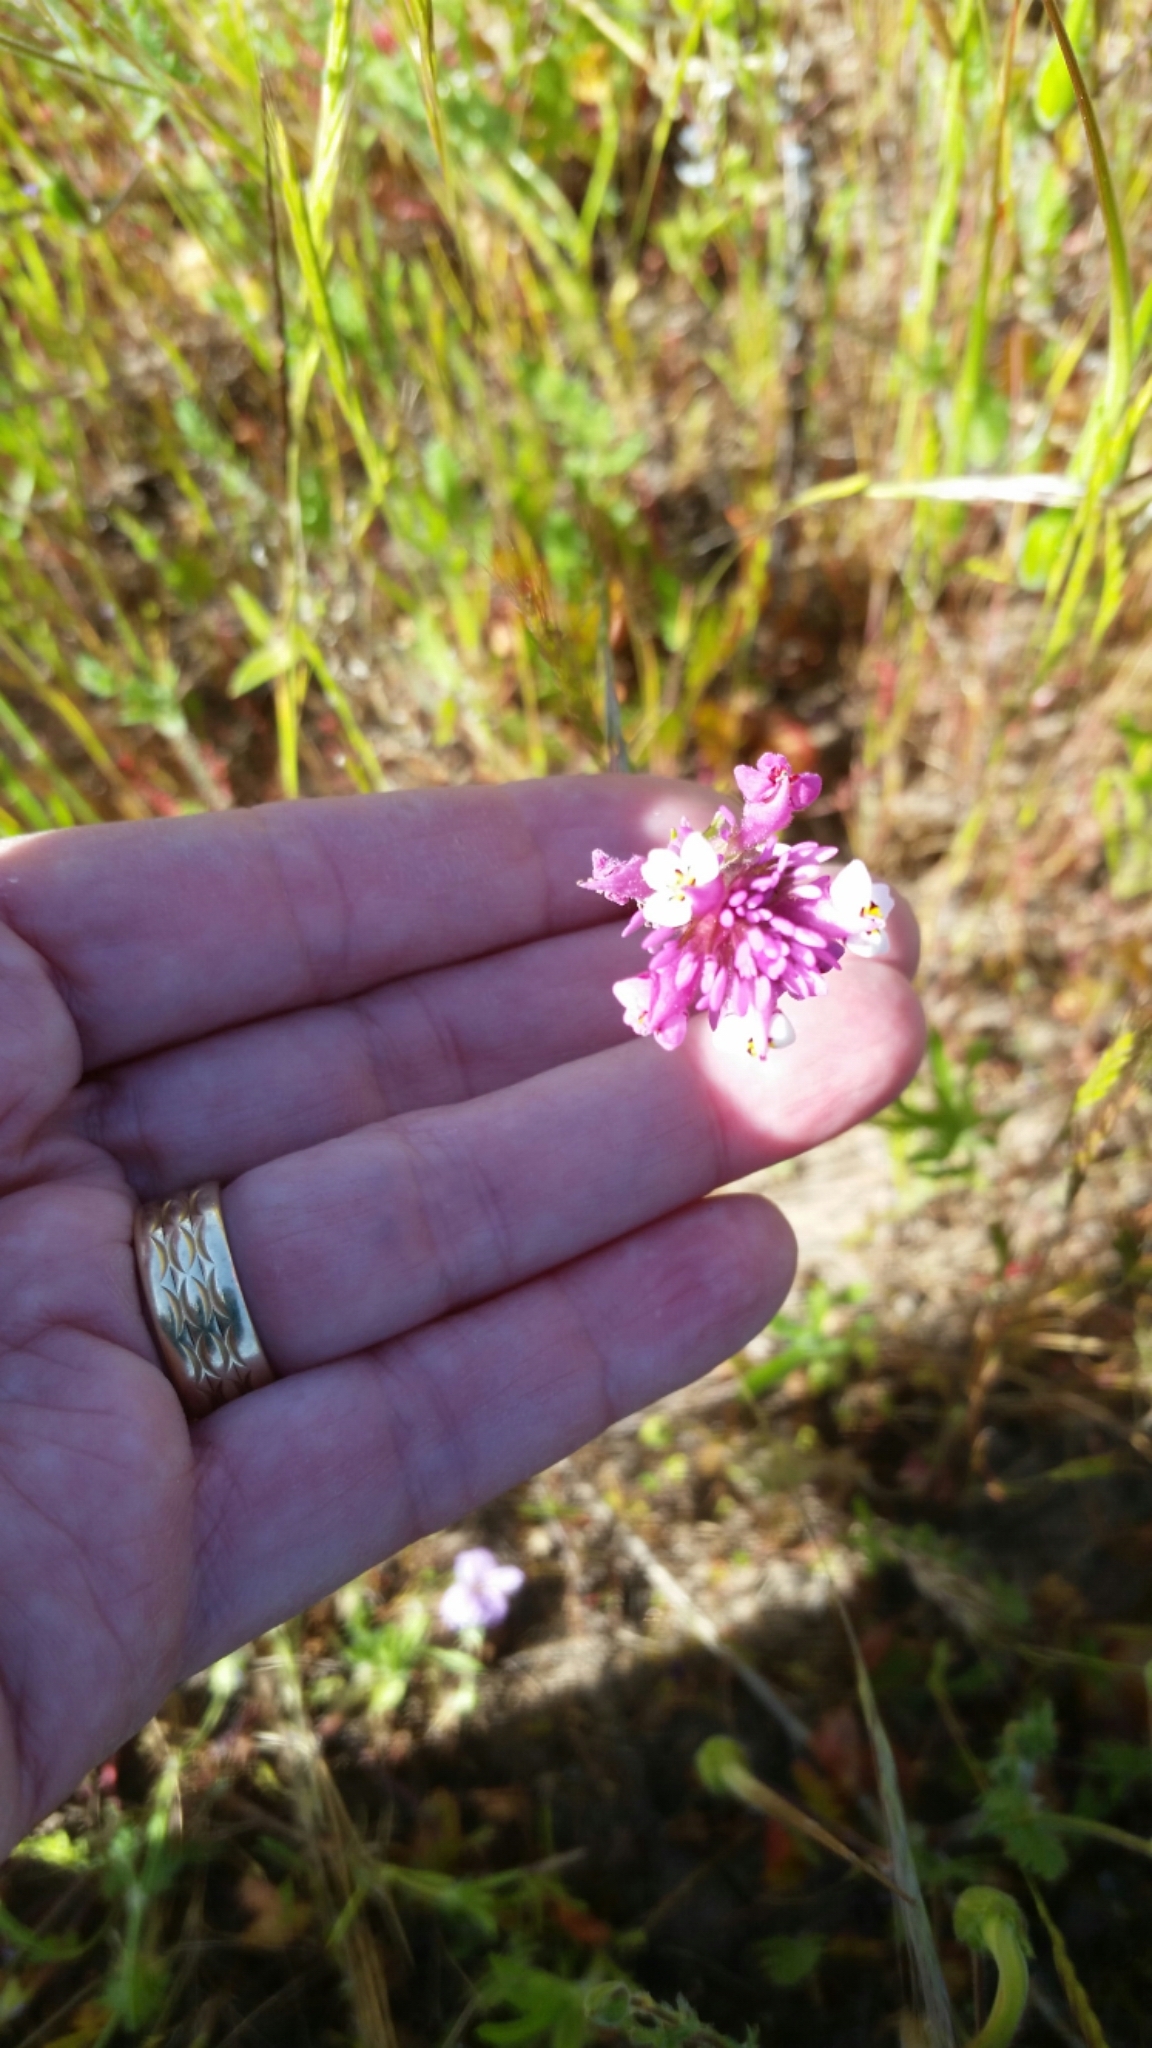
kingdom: Plantae
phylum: Tracheophyta
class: Magnoliopsida
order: Lamiales
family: Orobanchaceae
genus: Castilleja
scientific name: Castilleja densiflora
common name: Dense-flower indian paintbrush
